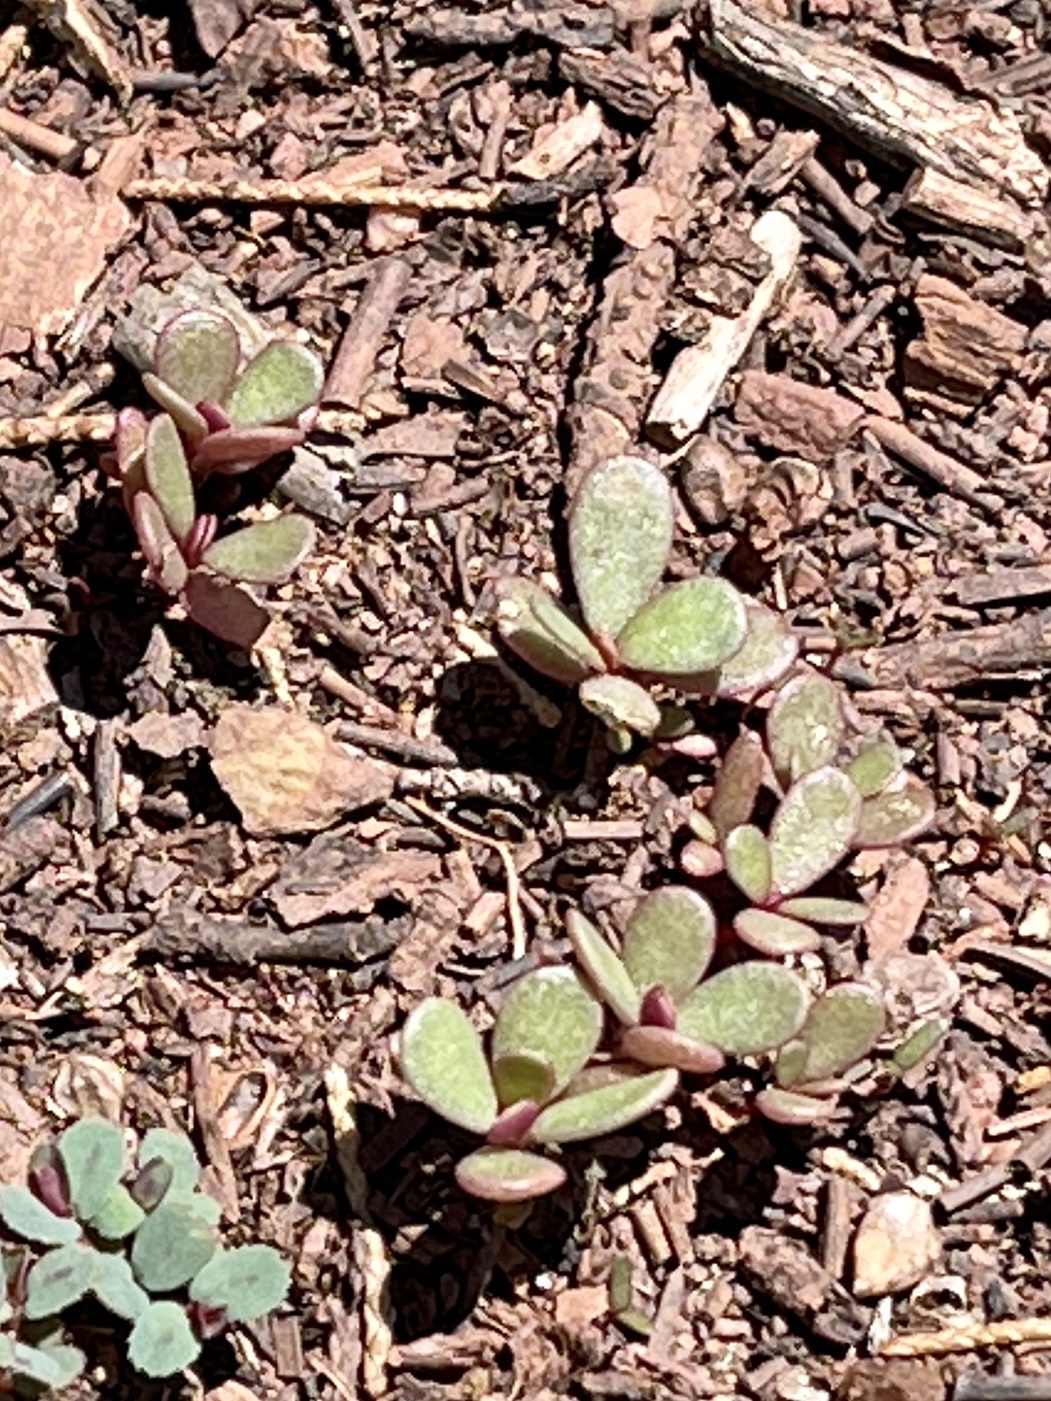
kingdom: Plantae
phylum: Tracheophyta
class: Magnoliopsida
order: Caryophyllales
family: Portulacaceae
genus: Portulaca
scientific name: Portulaca oleracea
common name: Common purslane
